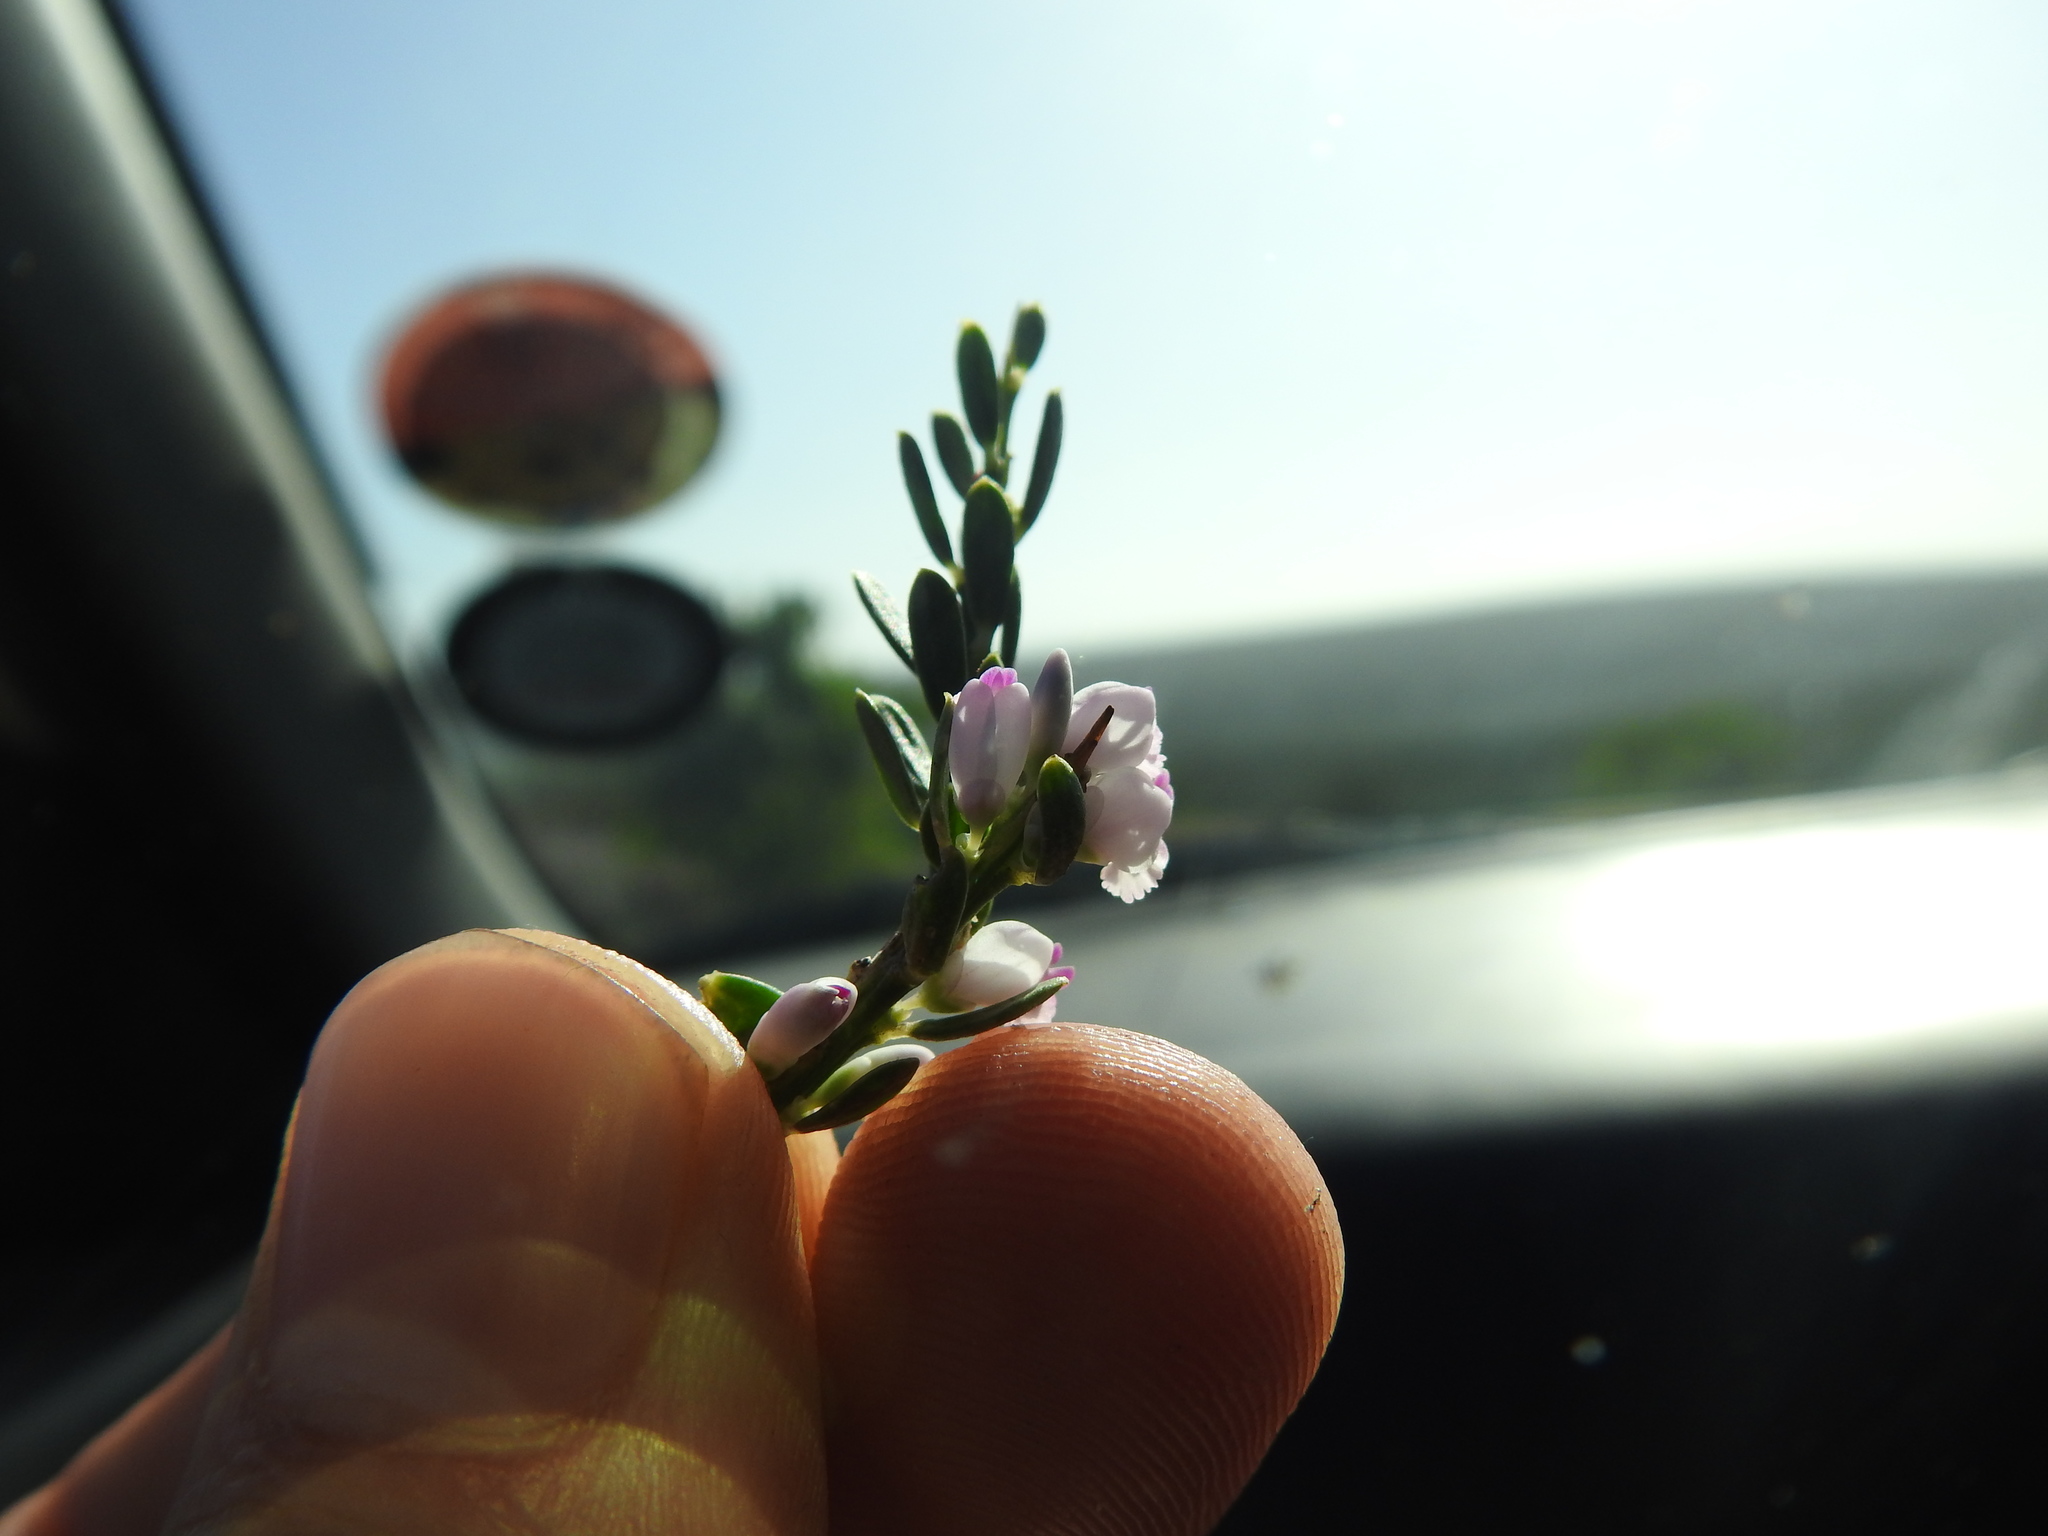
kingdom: Plantae
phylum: Tracheophyta
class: Magnoliopsida
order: Fabales
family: Polygalaceae
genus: Muraltia
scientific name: Muraltia spinosa
